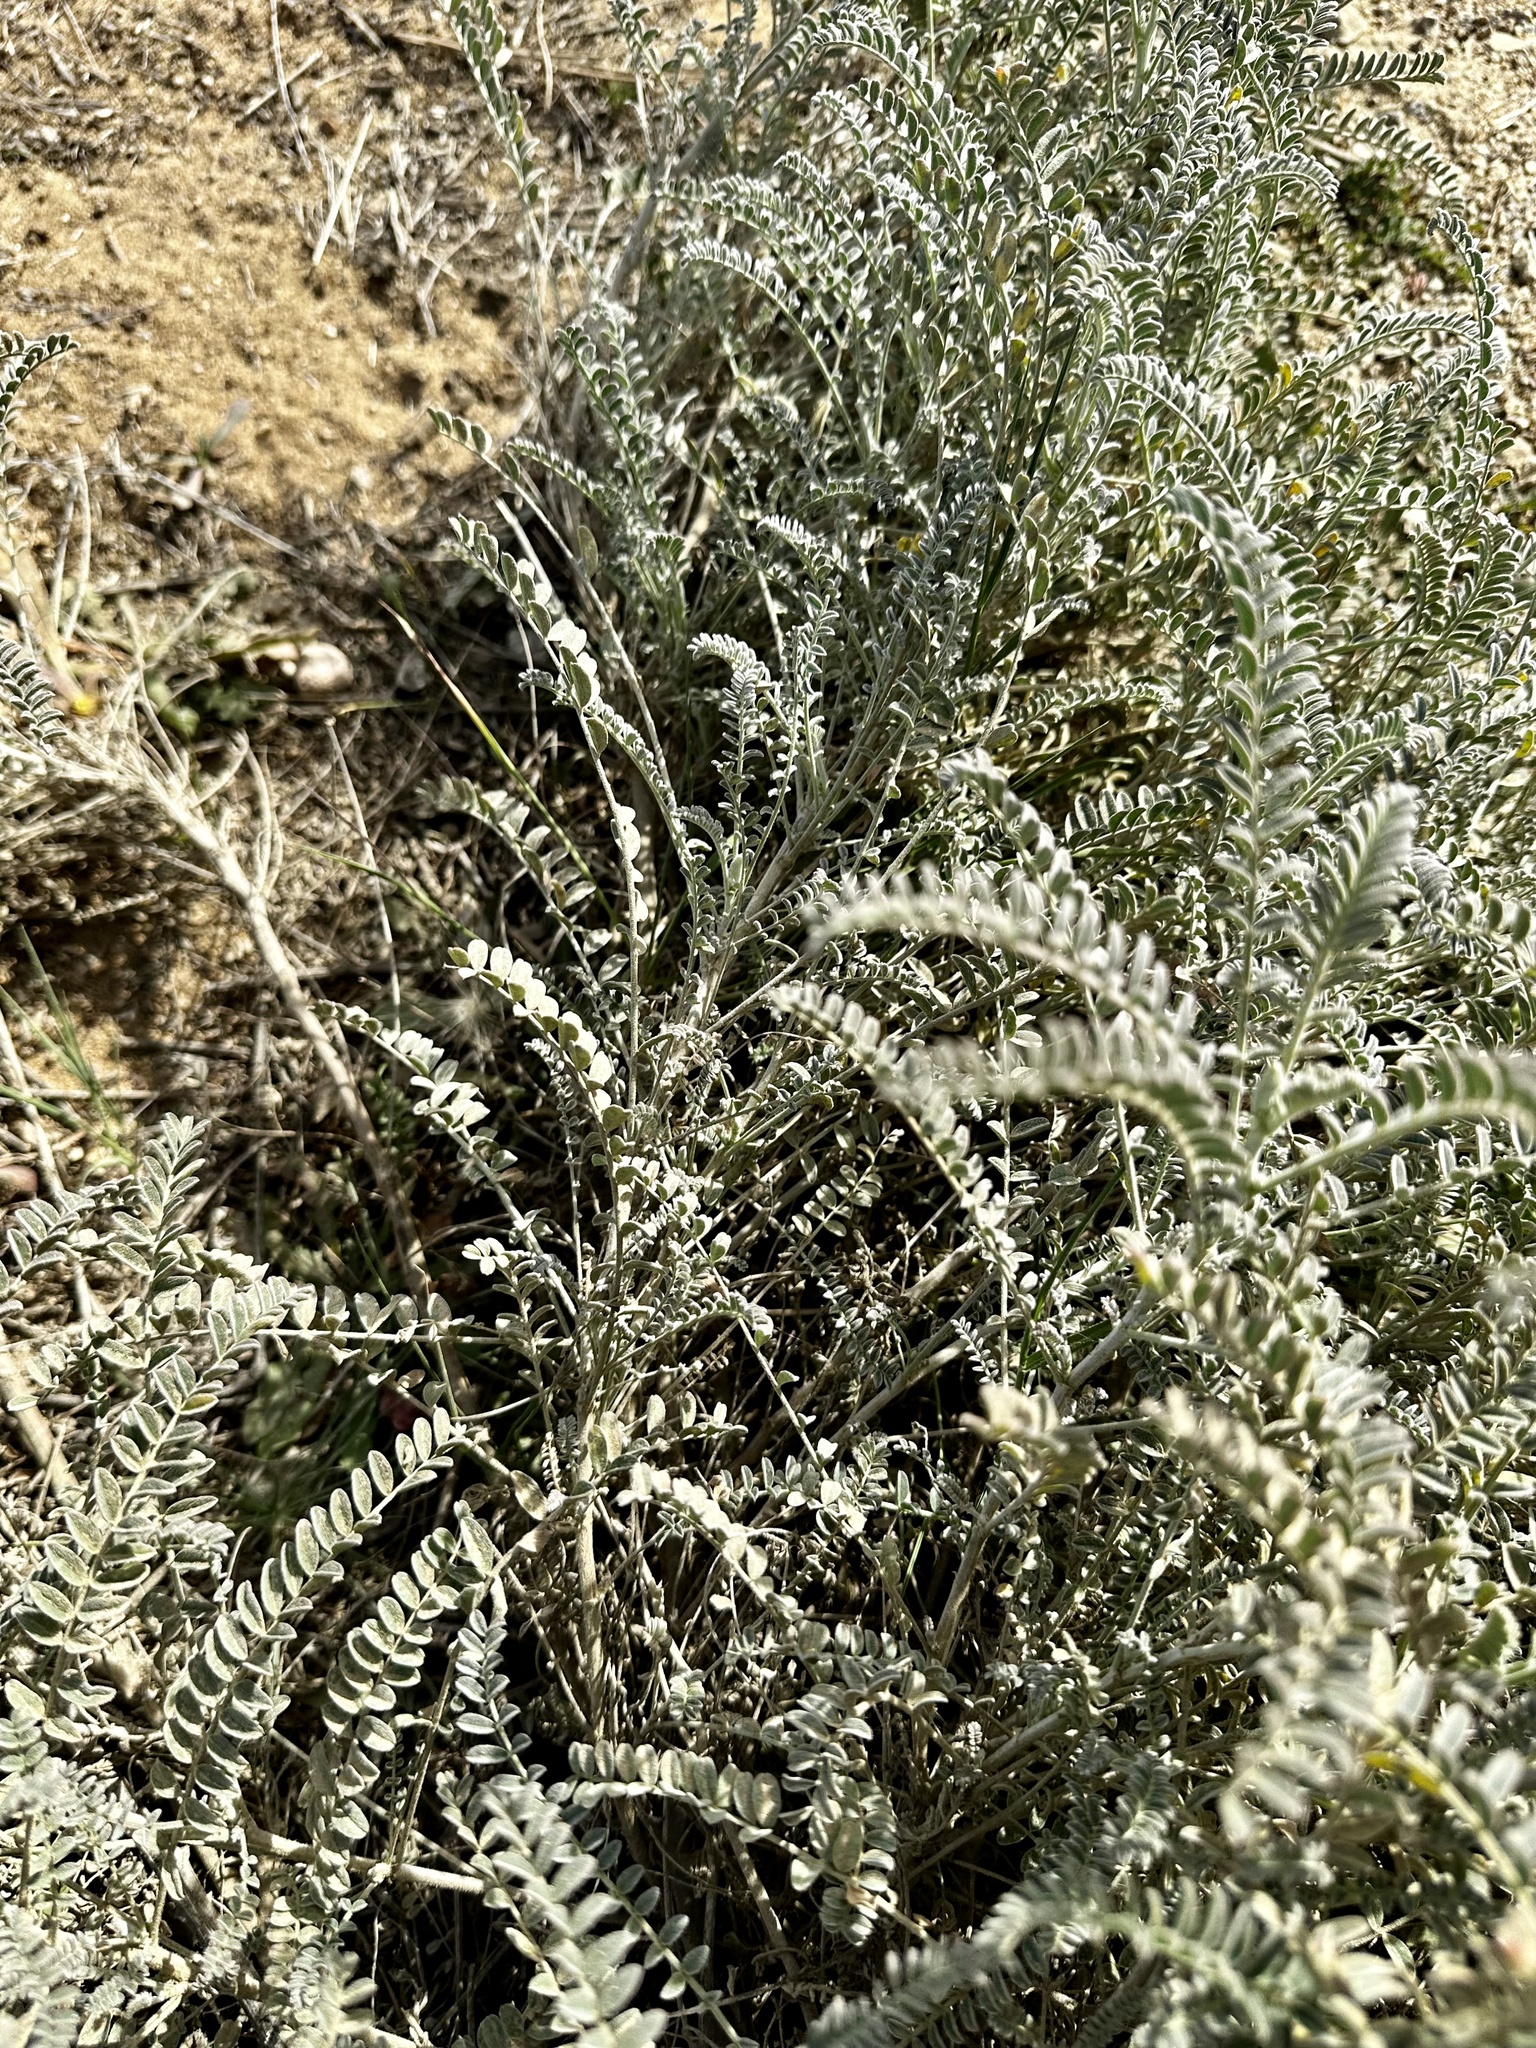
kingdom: Plantae
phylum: Tracheophyta
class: Magnoliopsida
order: Fabales
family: Fabaceae
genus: Astragalus
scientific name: Astragalus trichopodus
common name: Santa barbara milk-vetch
